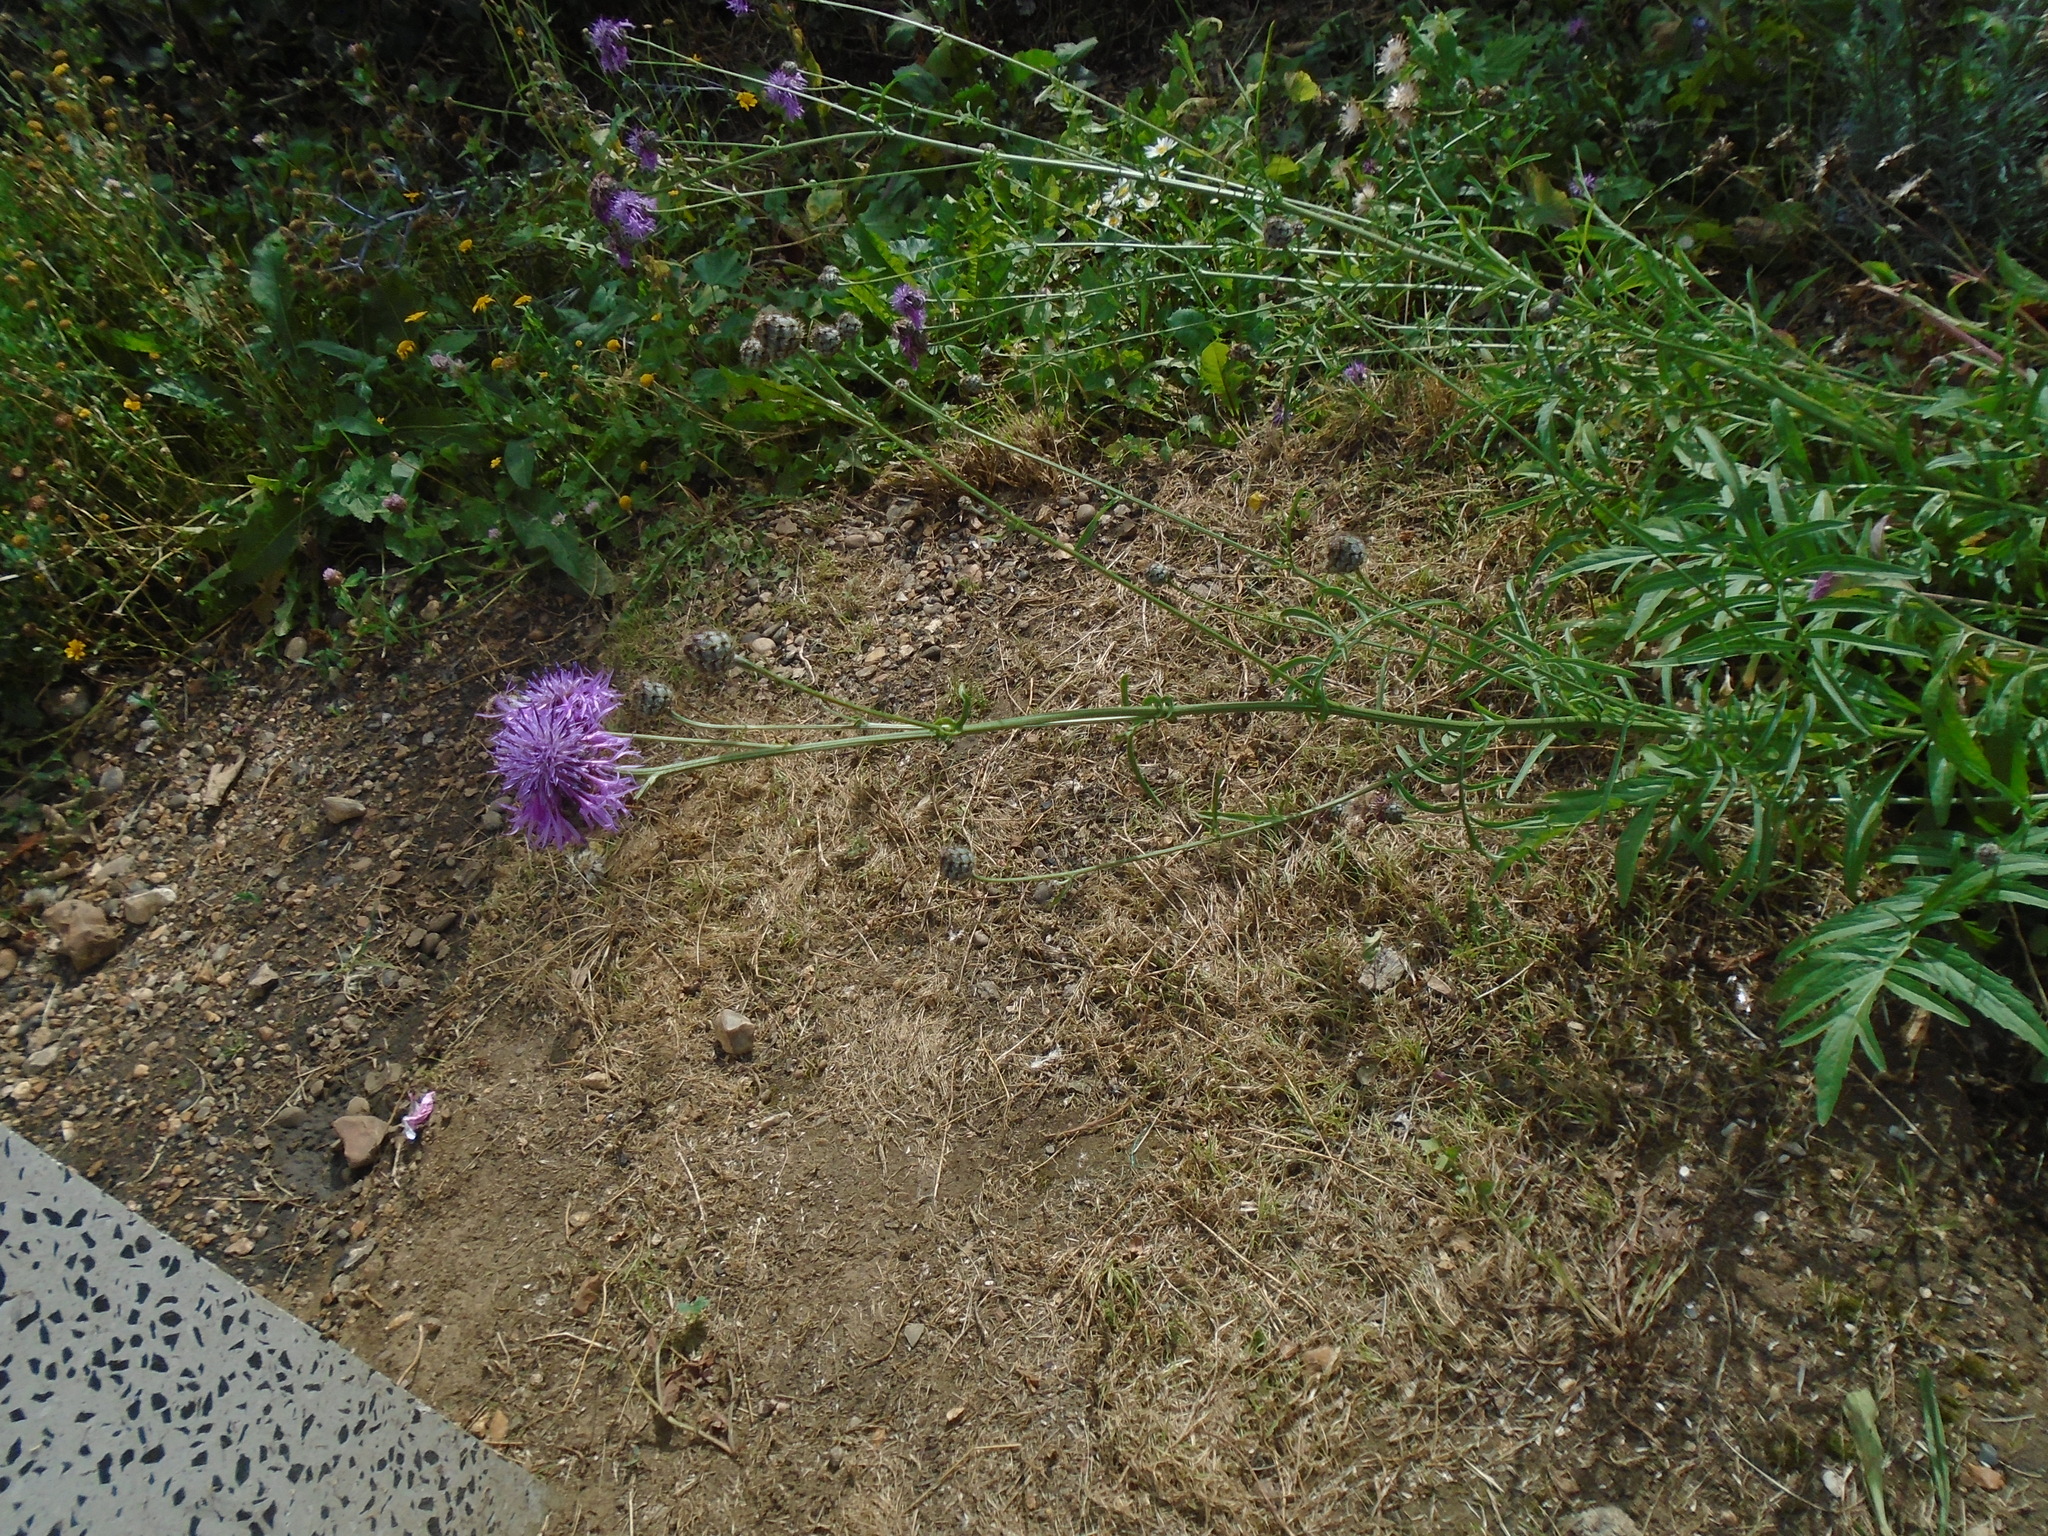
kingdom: Plantae
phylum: Tracheophyta
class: Magnoliopsida
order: Asterales
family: Asteraceae
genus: Centaurea
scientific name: Centaurea scabiosa
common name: Greater knapweed
